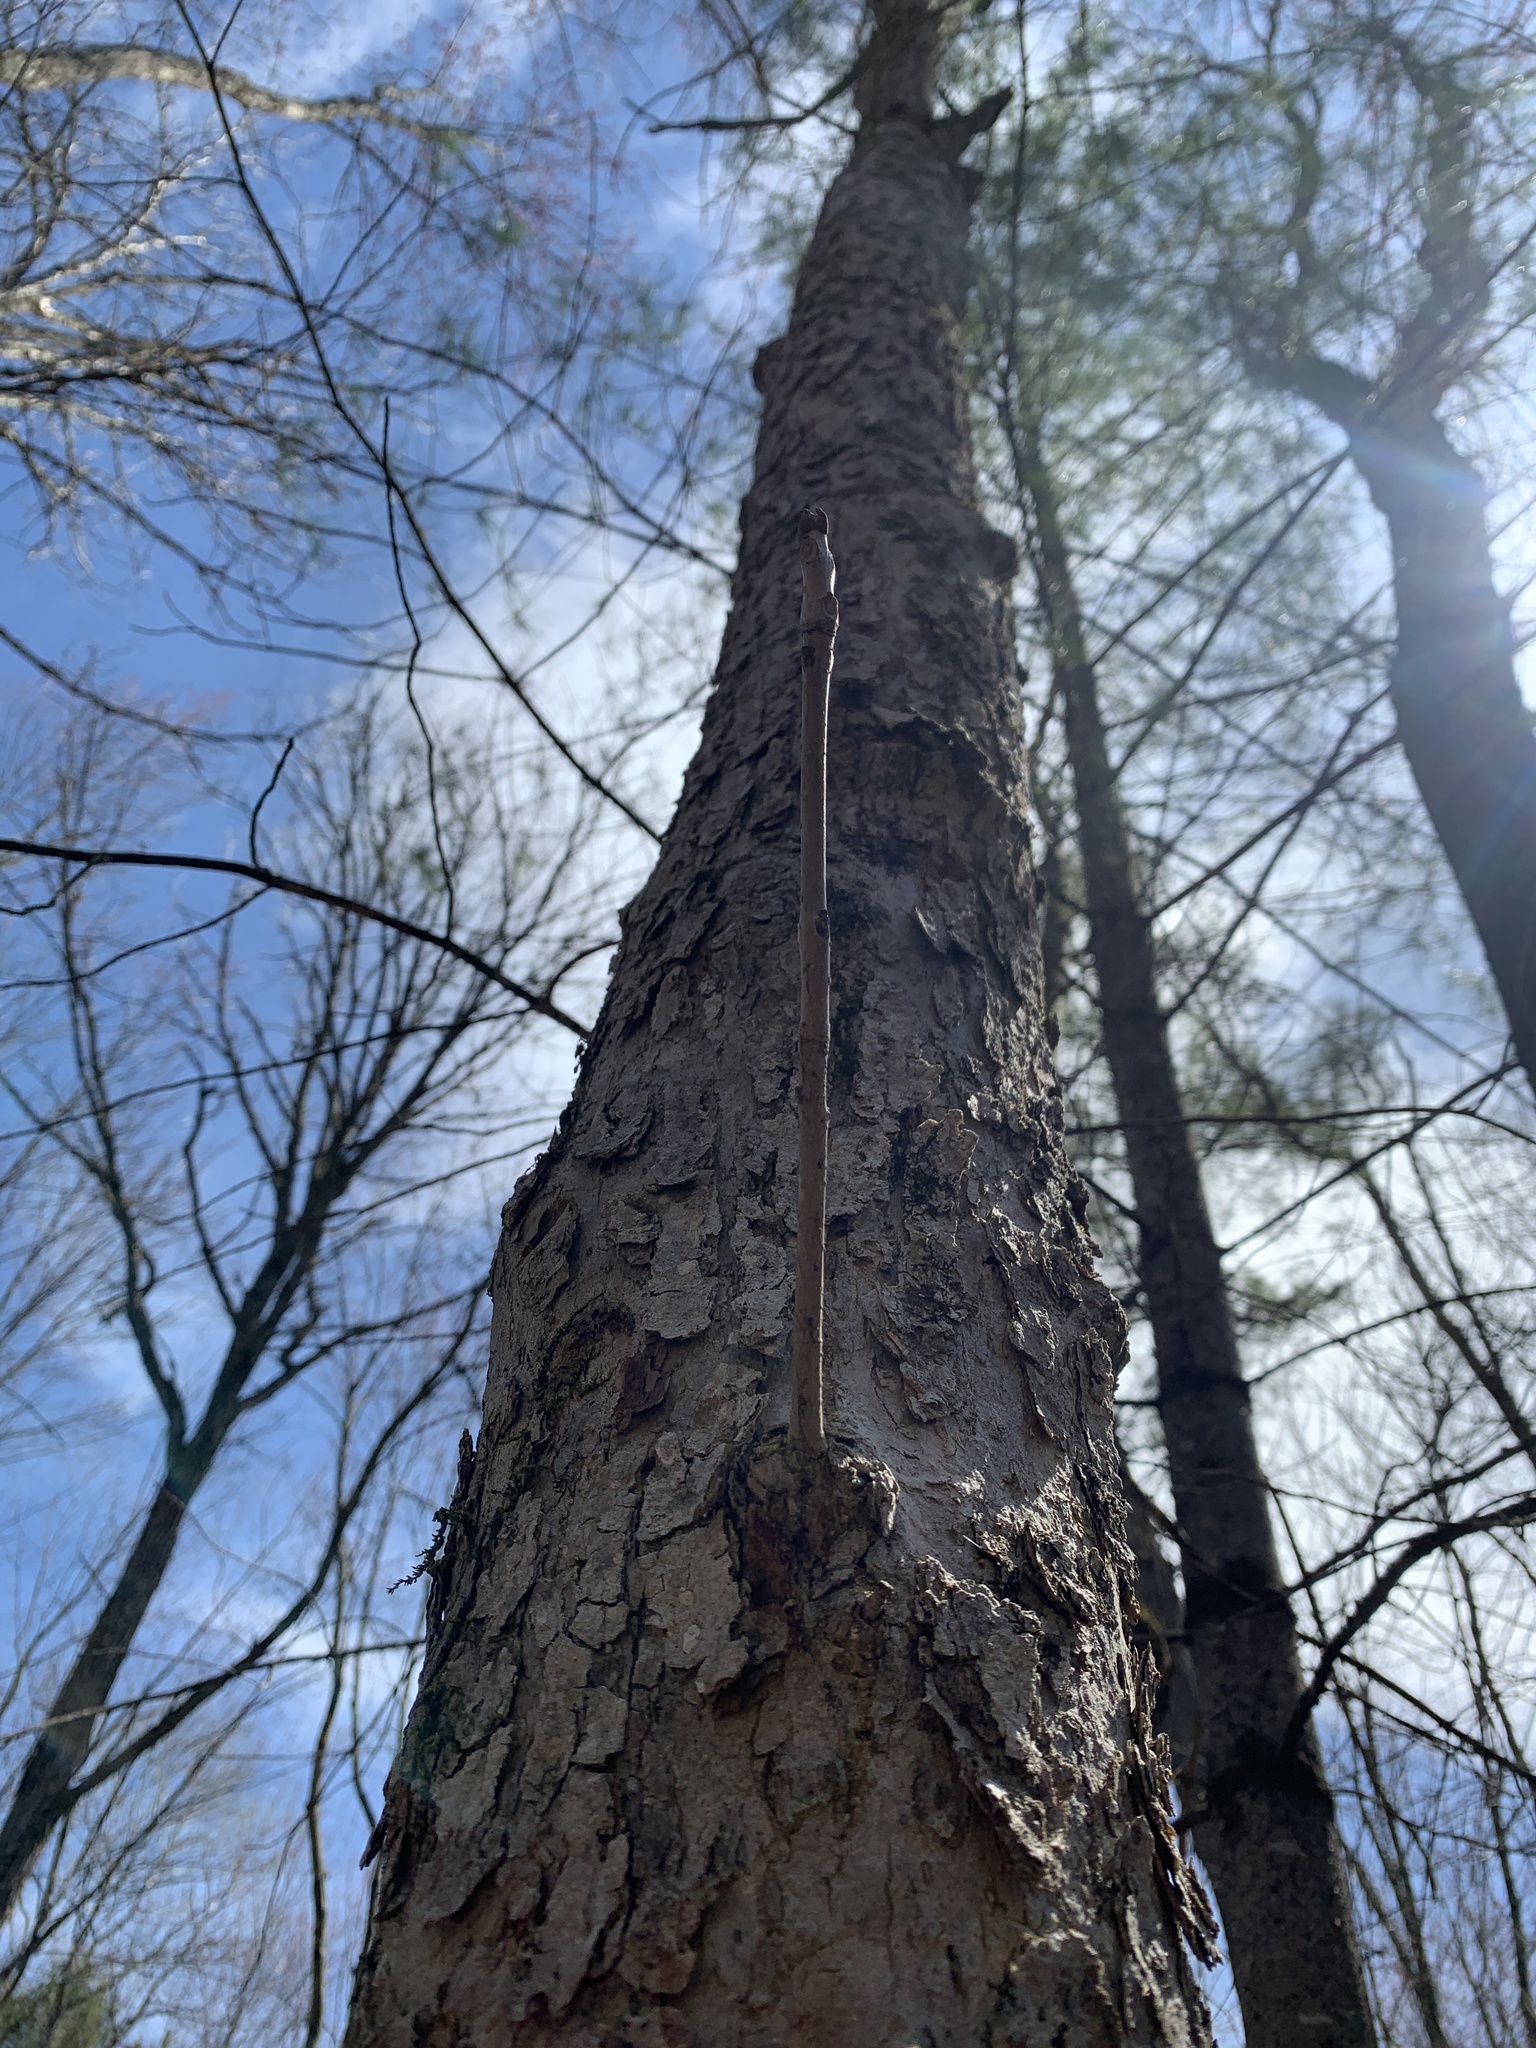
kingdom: Plantae
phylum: Tracheophyta
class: Magnoliopsida
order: Lamiales
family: Oleaceae
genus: Fraxinus
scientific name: Fraxinus nigra
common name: Black ash
